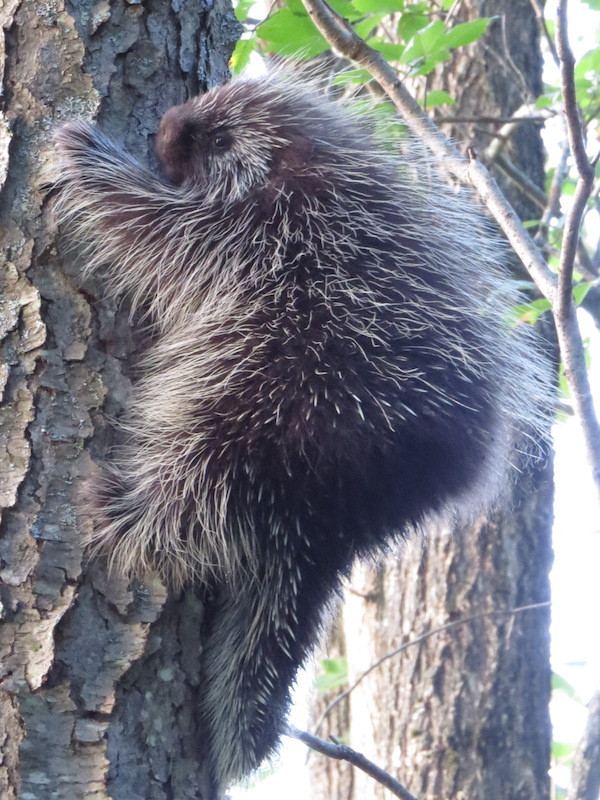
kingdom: Animalia
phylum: Chordata
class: Mammalia
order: Rodentia
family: Erethizontidae
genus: Erethizon
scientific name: Erethizon dorsatus
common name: North american porcupine
